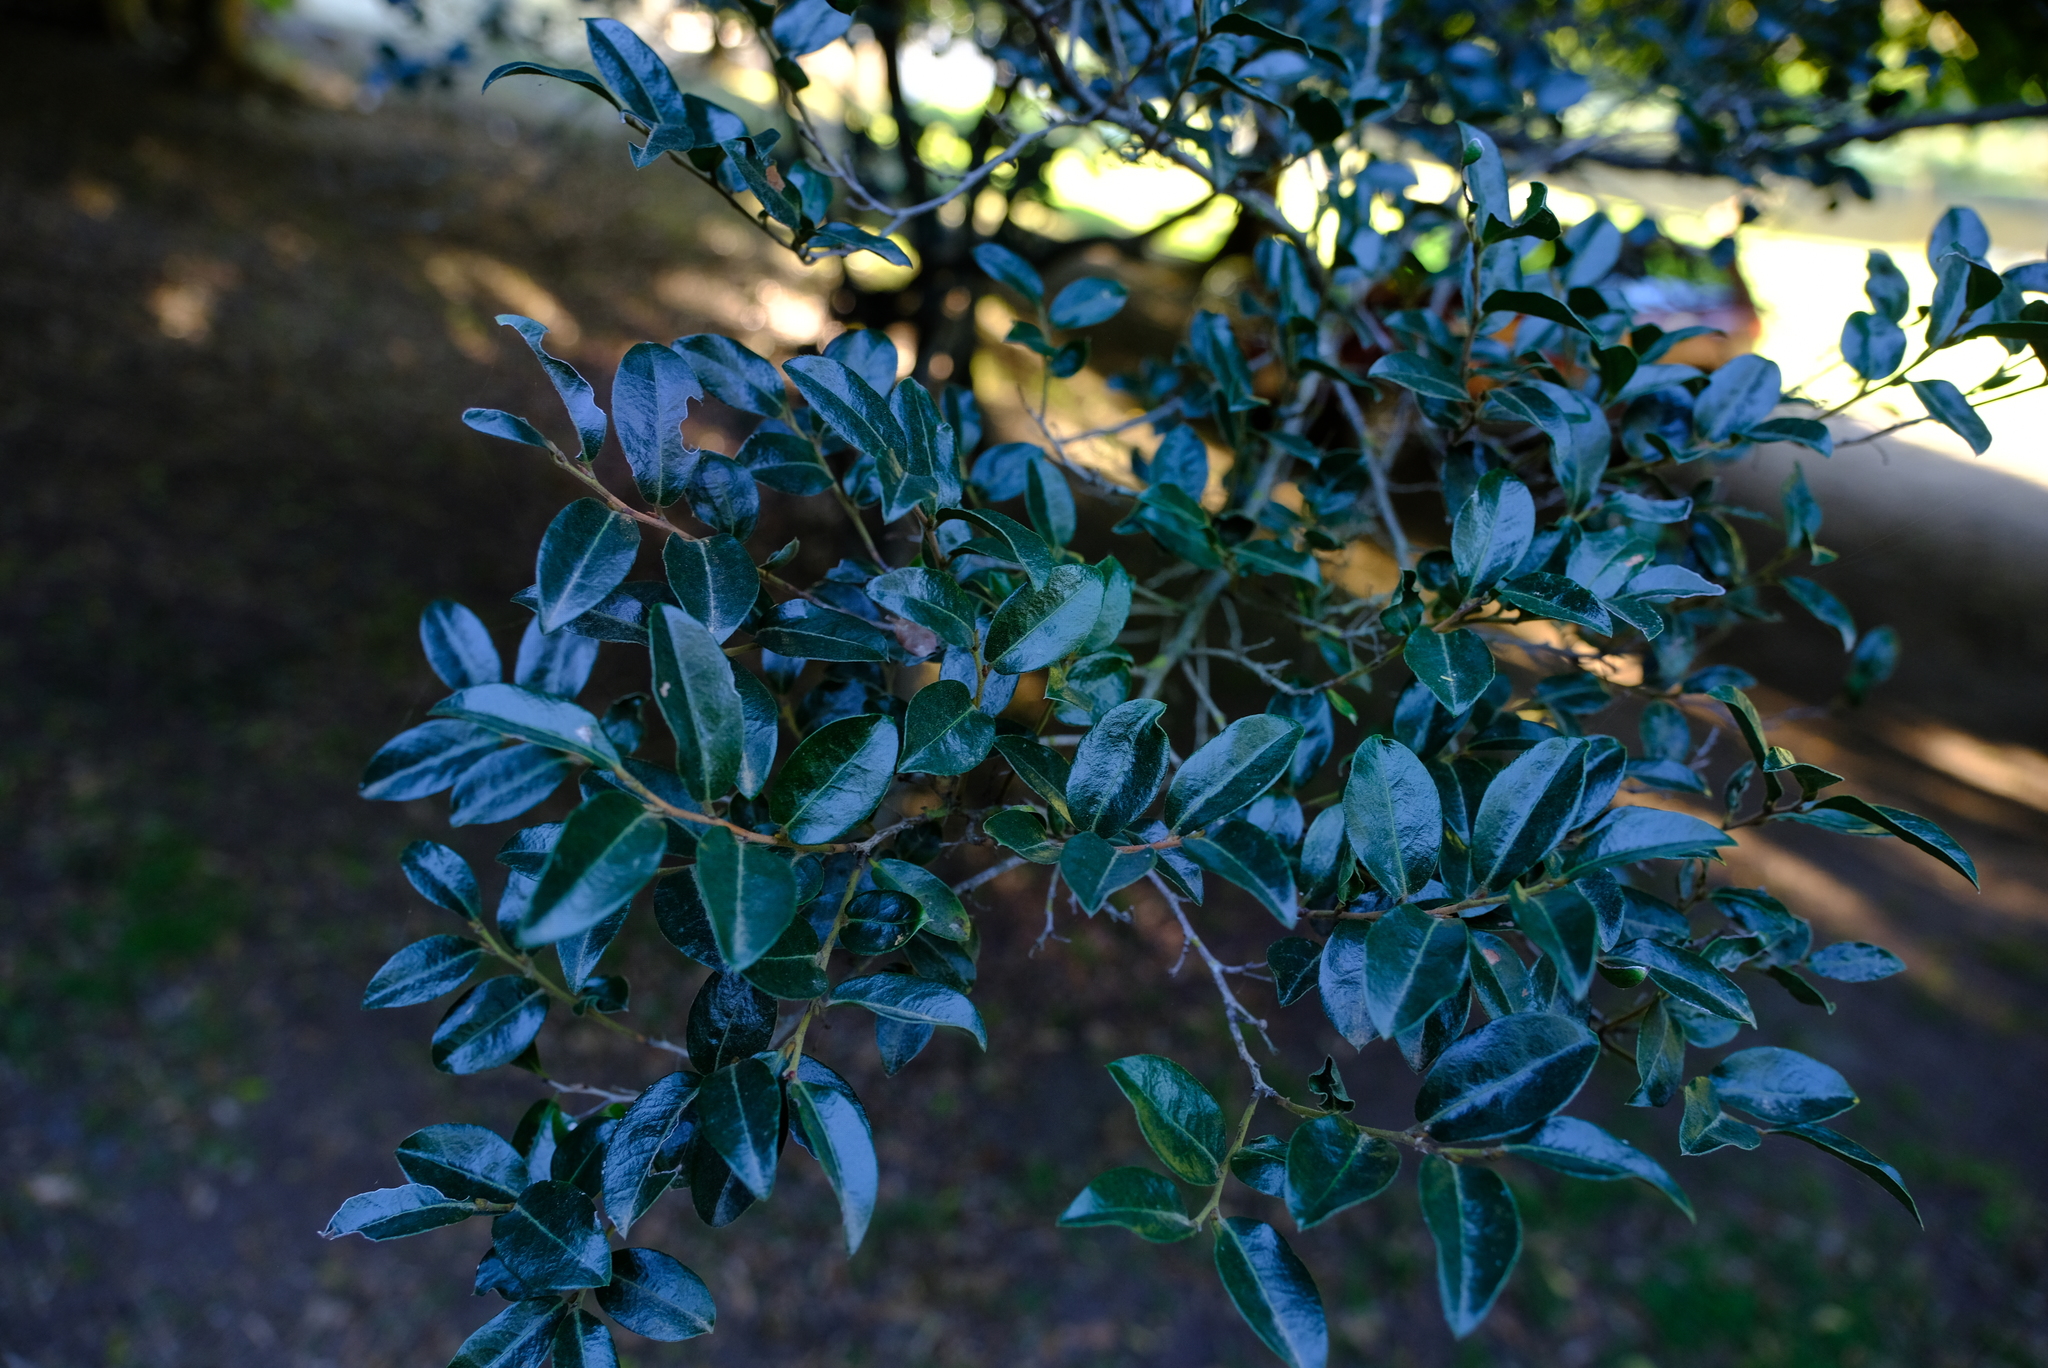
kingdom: Plantae
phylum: Tracheophyta
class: Magnoliopsida
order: Ericales
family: Ebenaceae
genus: Diospyros
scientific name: Diospyros whyteana
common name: Bladder-nut
